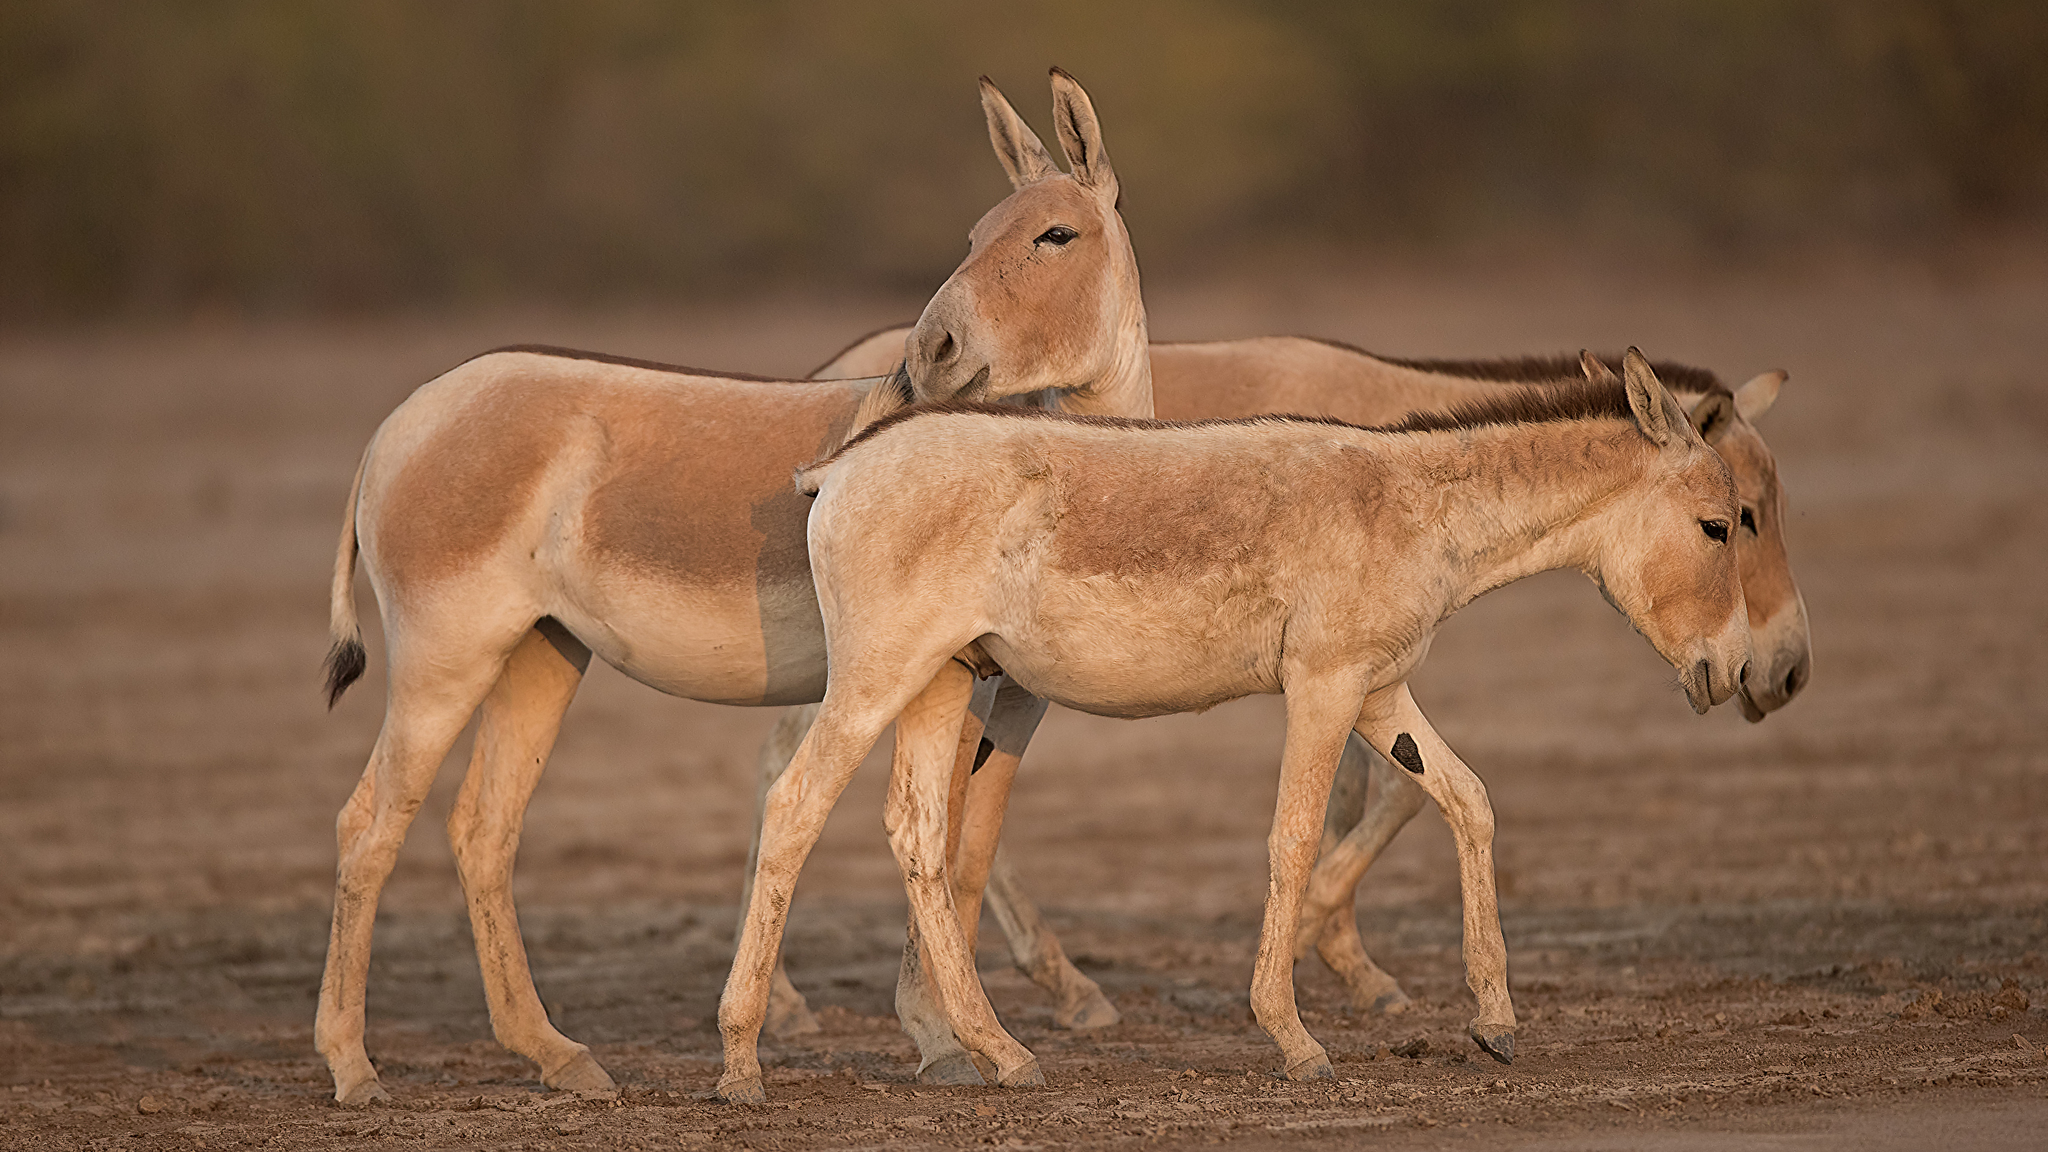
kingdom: Animalia
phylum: Chordata
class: Mammalia
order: Perissodactyla
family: Equidae
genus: Equus
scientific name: Equus khur
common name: Indian wild ass
